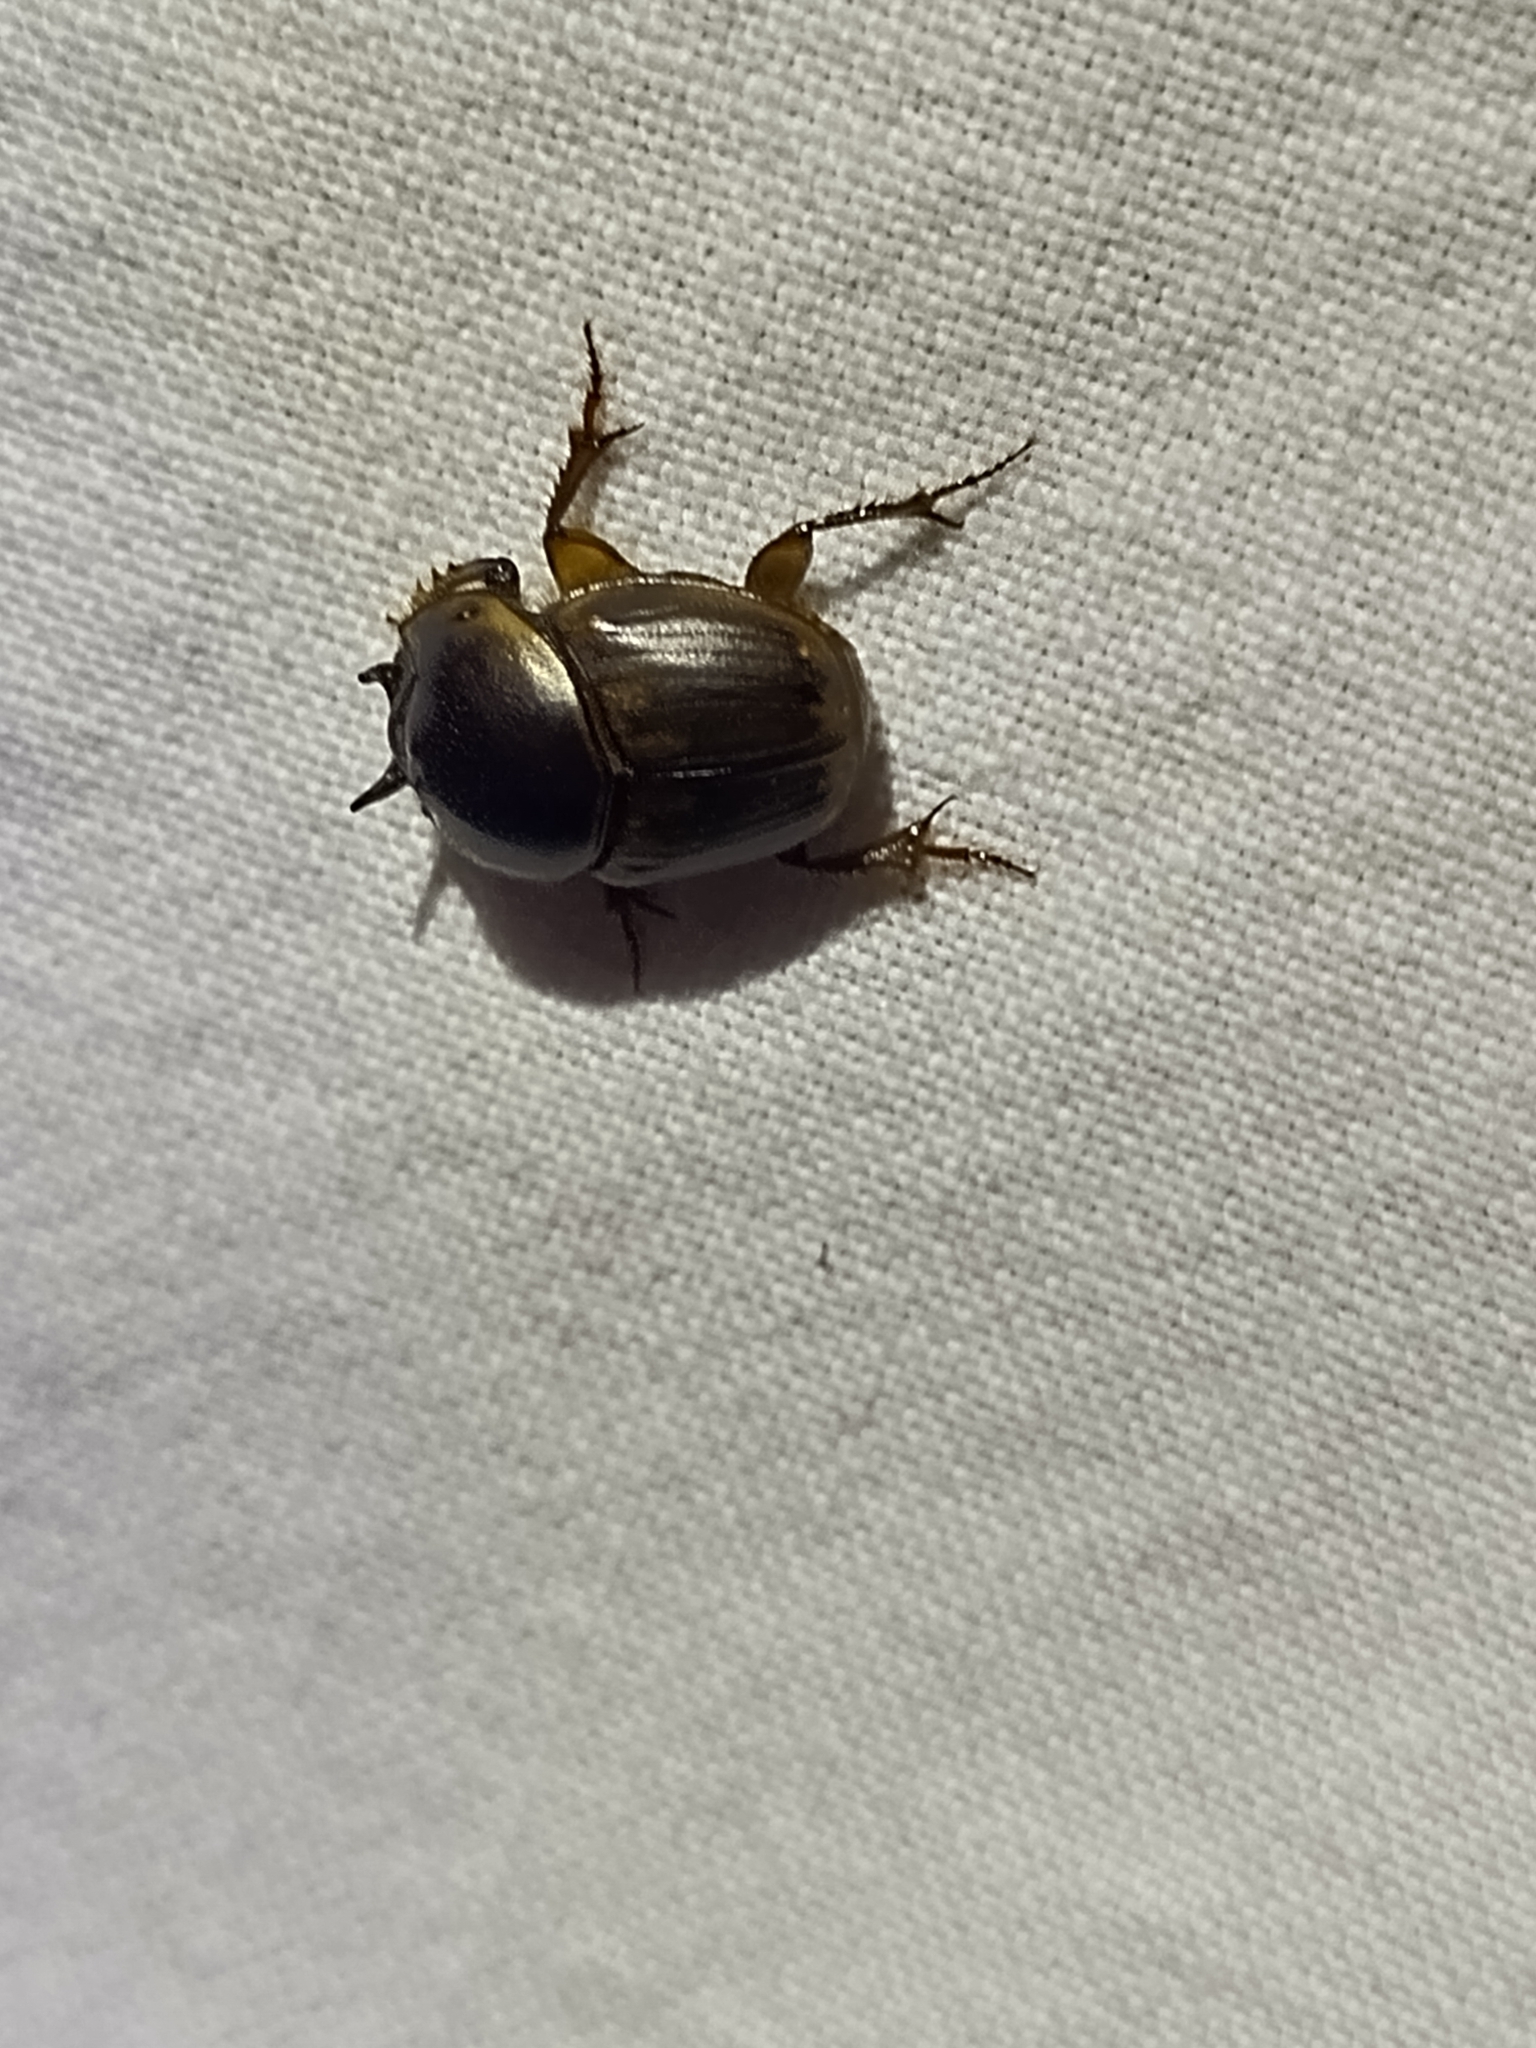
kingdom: Animalia
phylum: Arthropoda
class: Insecta
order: Coleoptera
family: Scarabaeidae
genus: Digitonthophagus
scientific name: Digitonthophagus gazella
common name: Brown dung beetle
